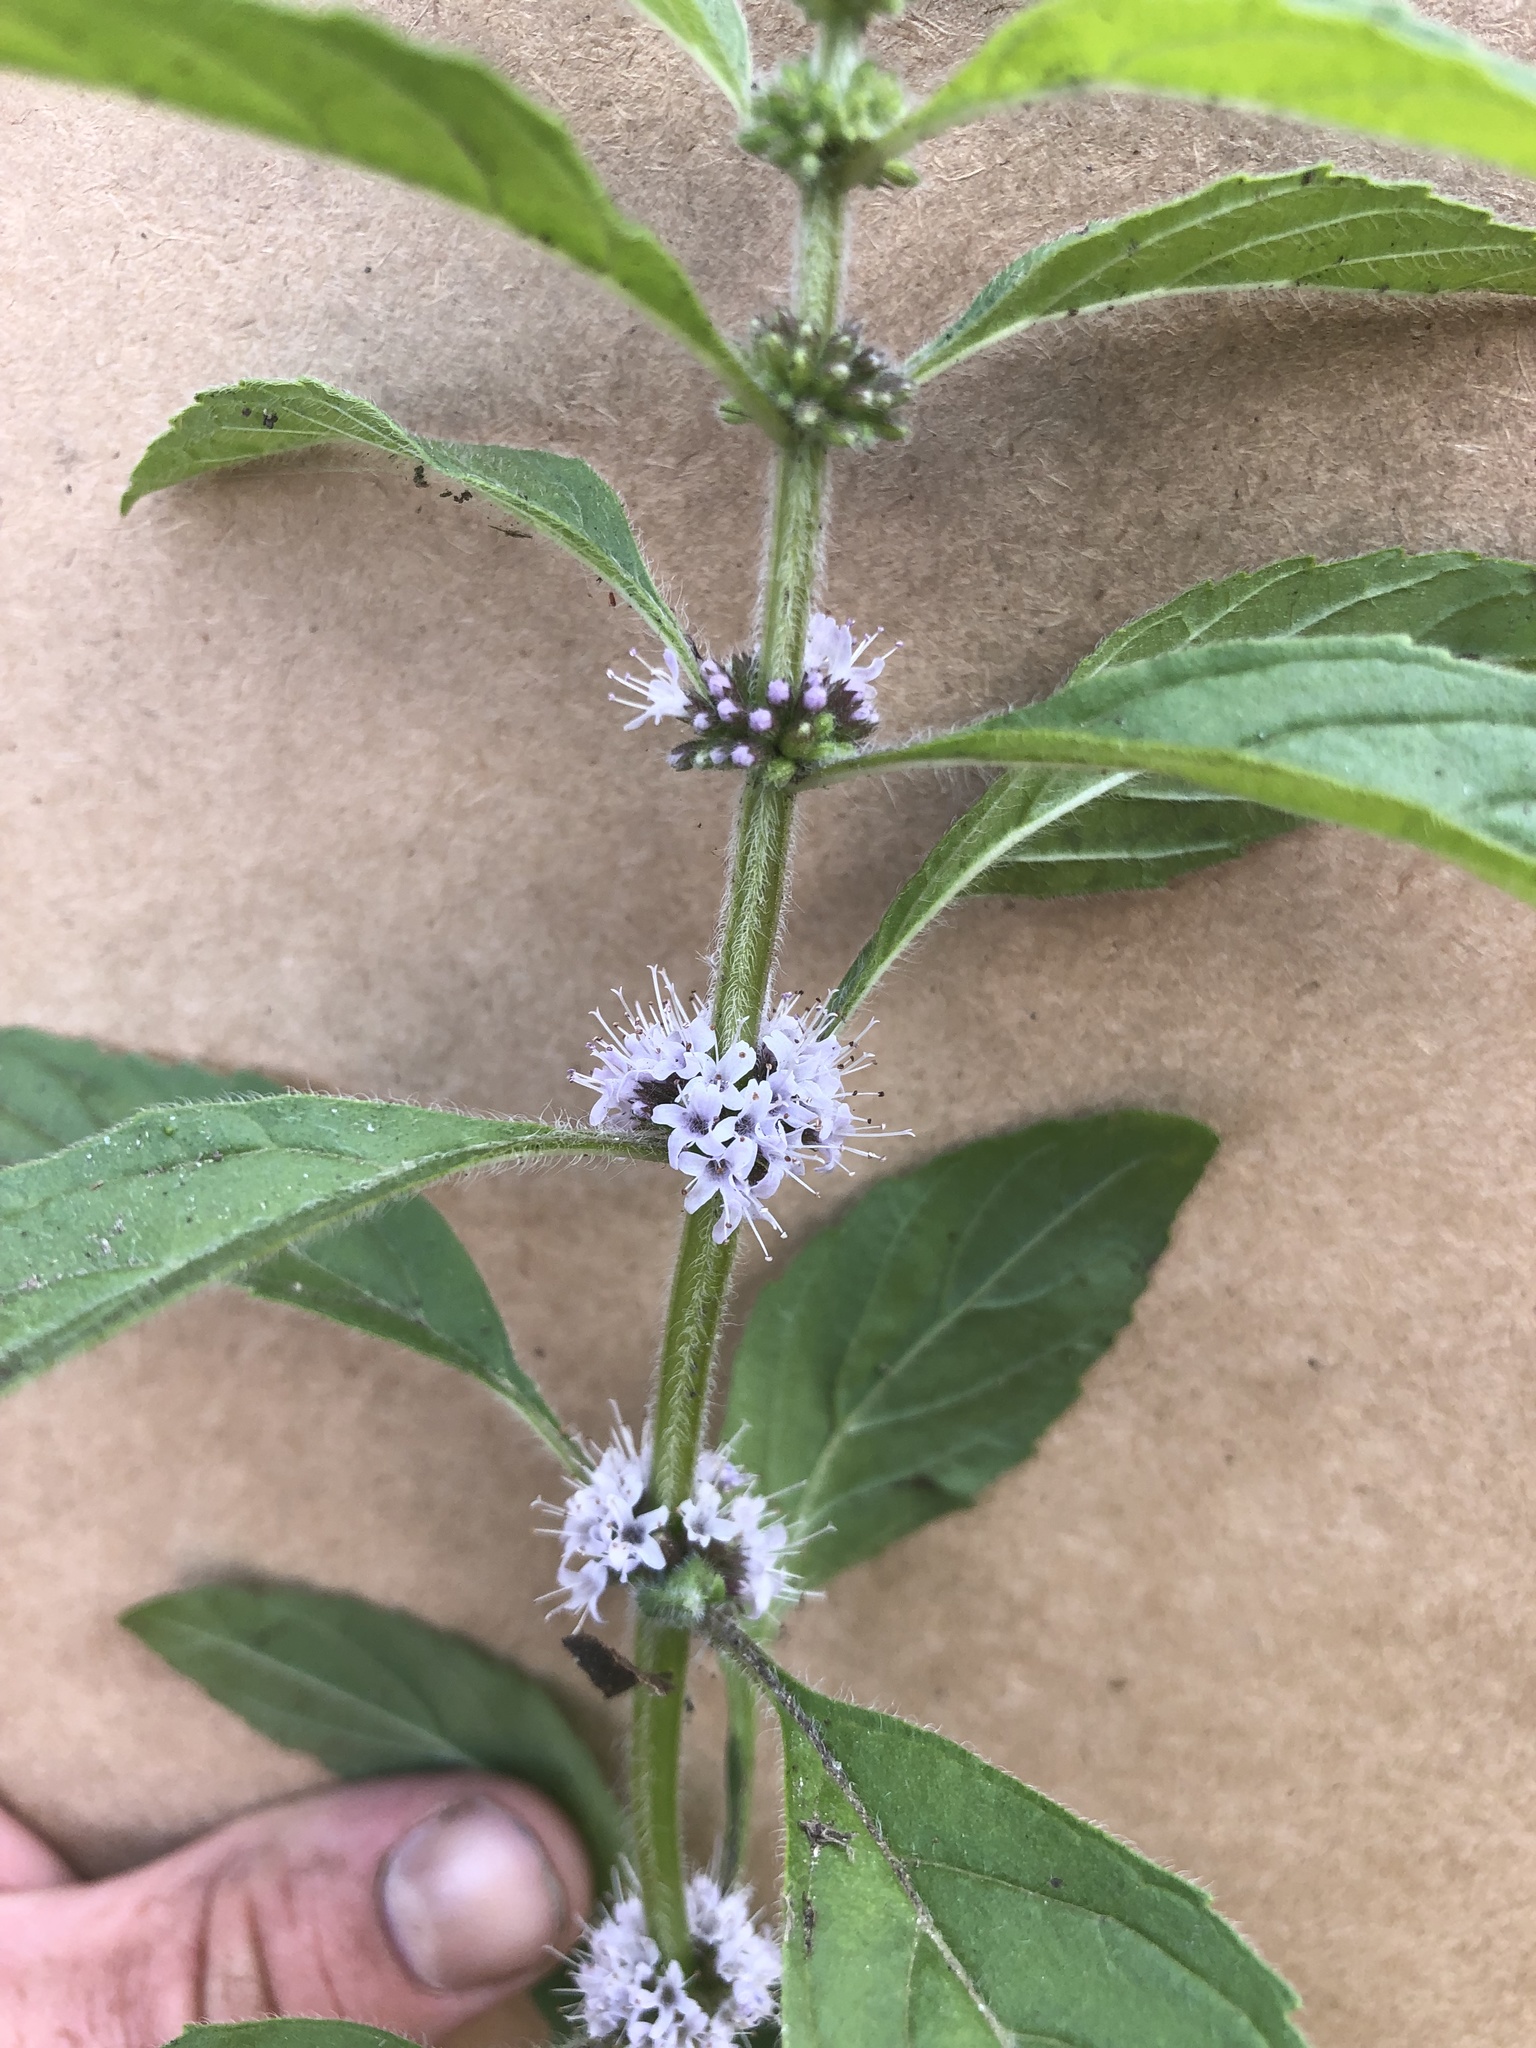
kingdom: Plantae
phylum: Tracheophyta
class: Magnoliopsida
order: Lamiales
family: Lamiaceae
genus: Mentha
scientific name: Mentha canadensis
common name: American corn mint
